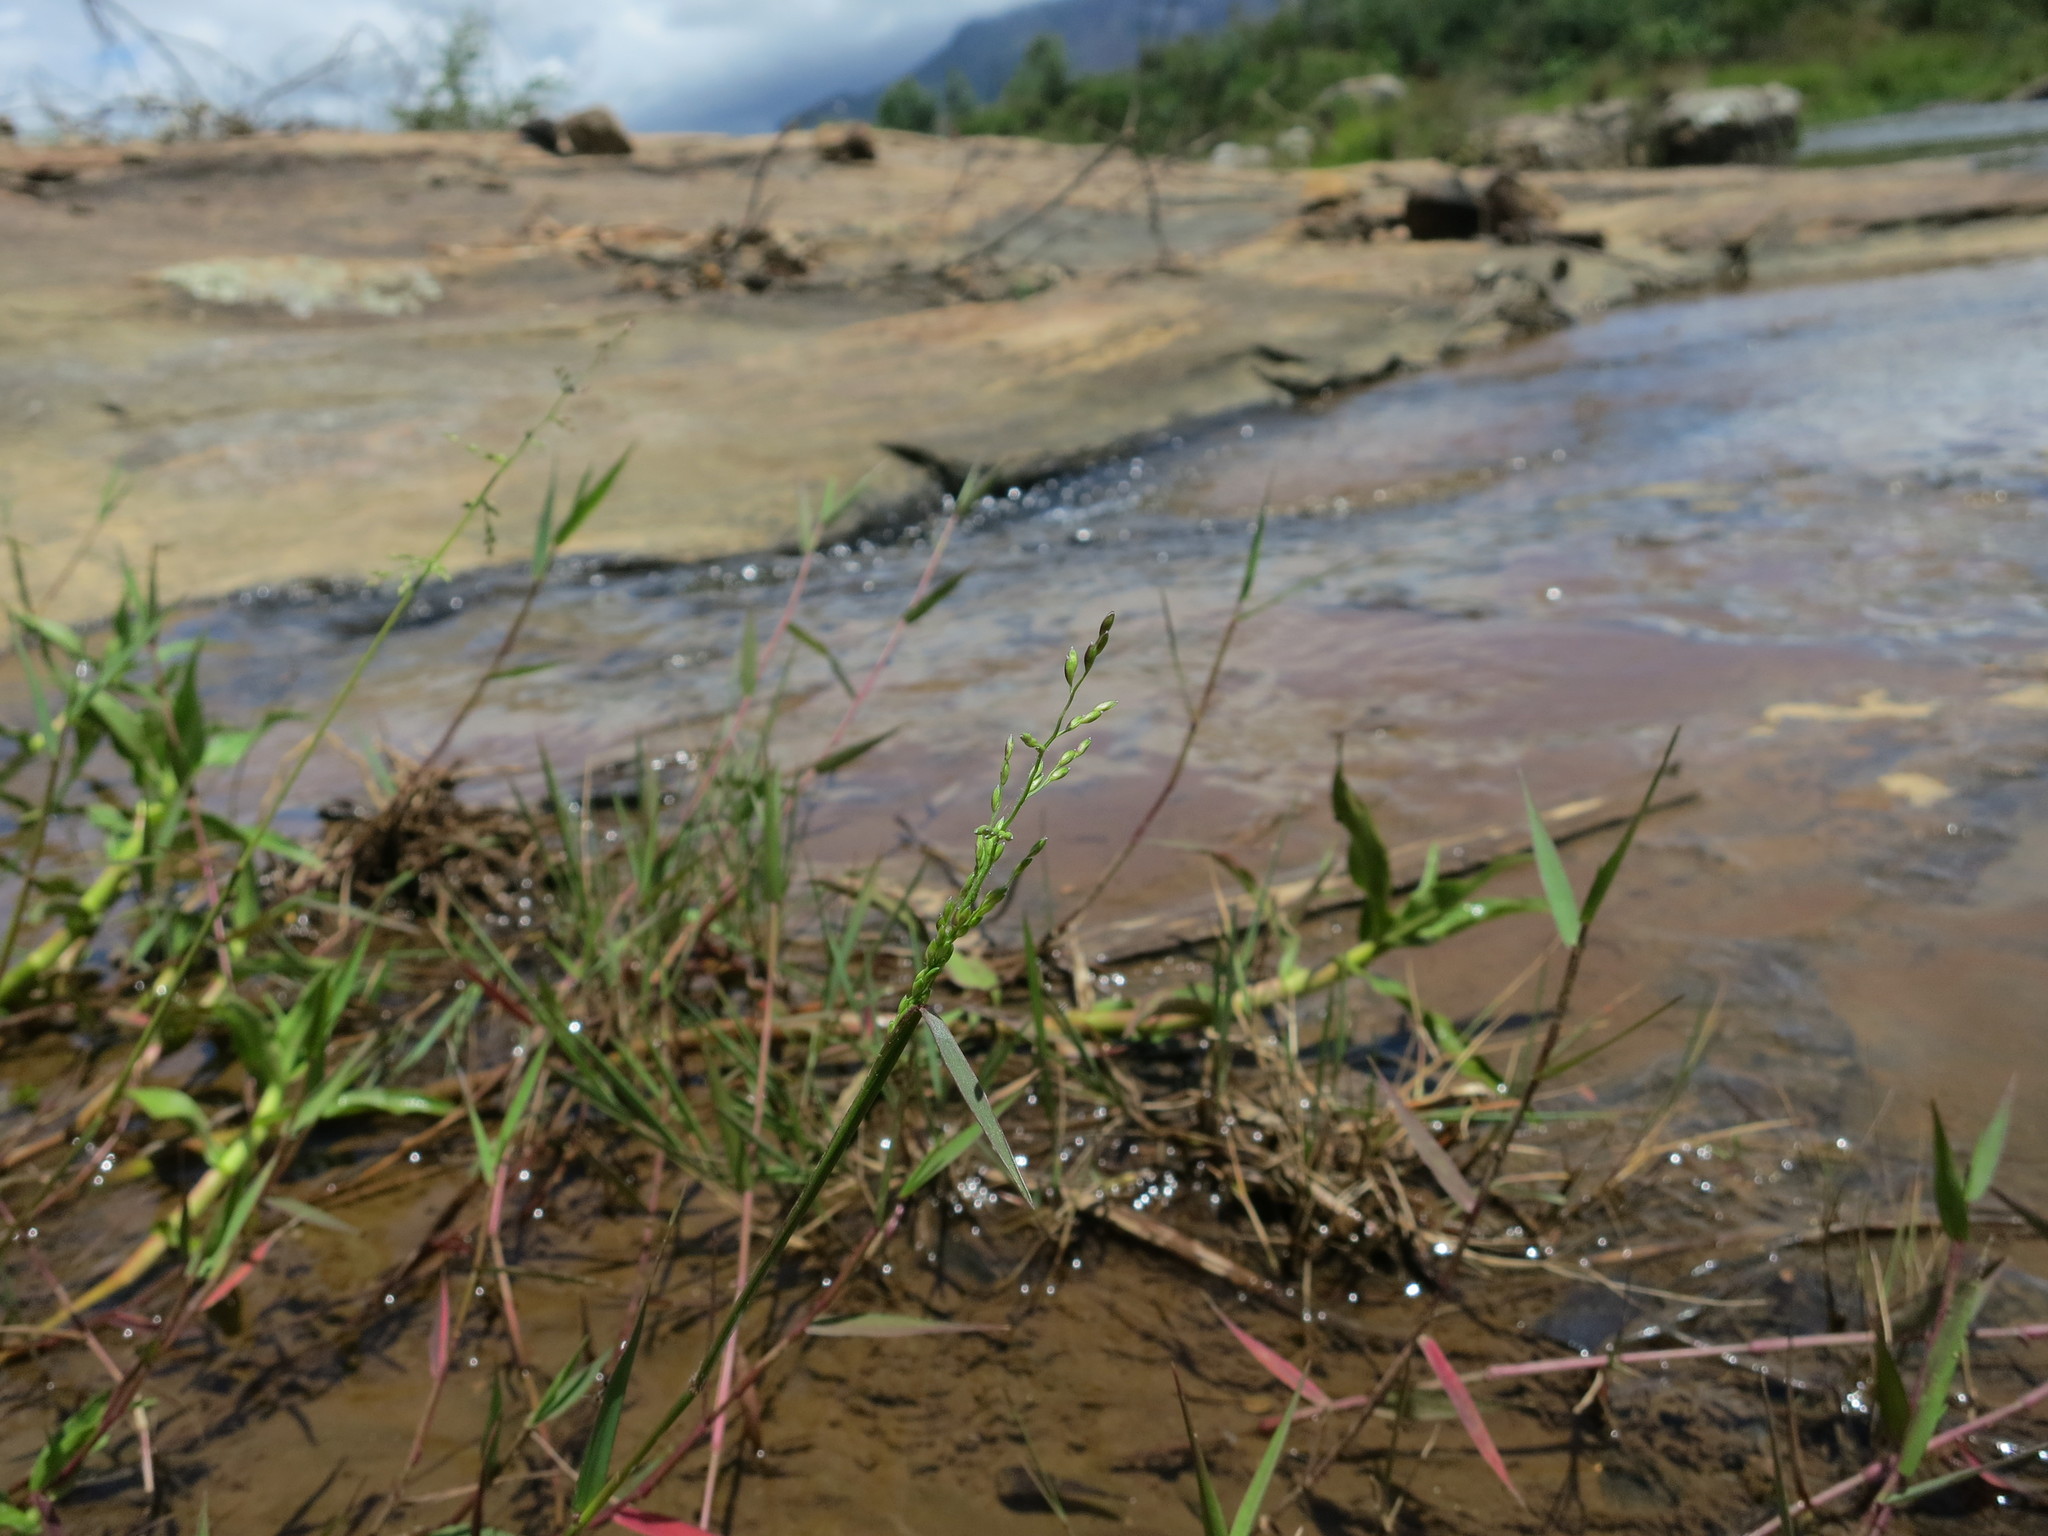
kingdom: Plantae
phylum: Tracheophyta
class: Liliopsida
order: Poales
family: Poaceae
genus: Adenochloa
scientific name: Adenochloa hymeniochila
